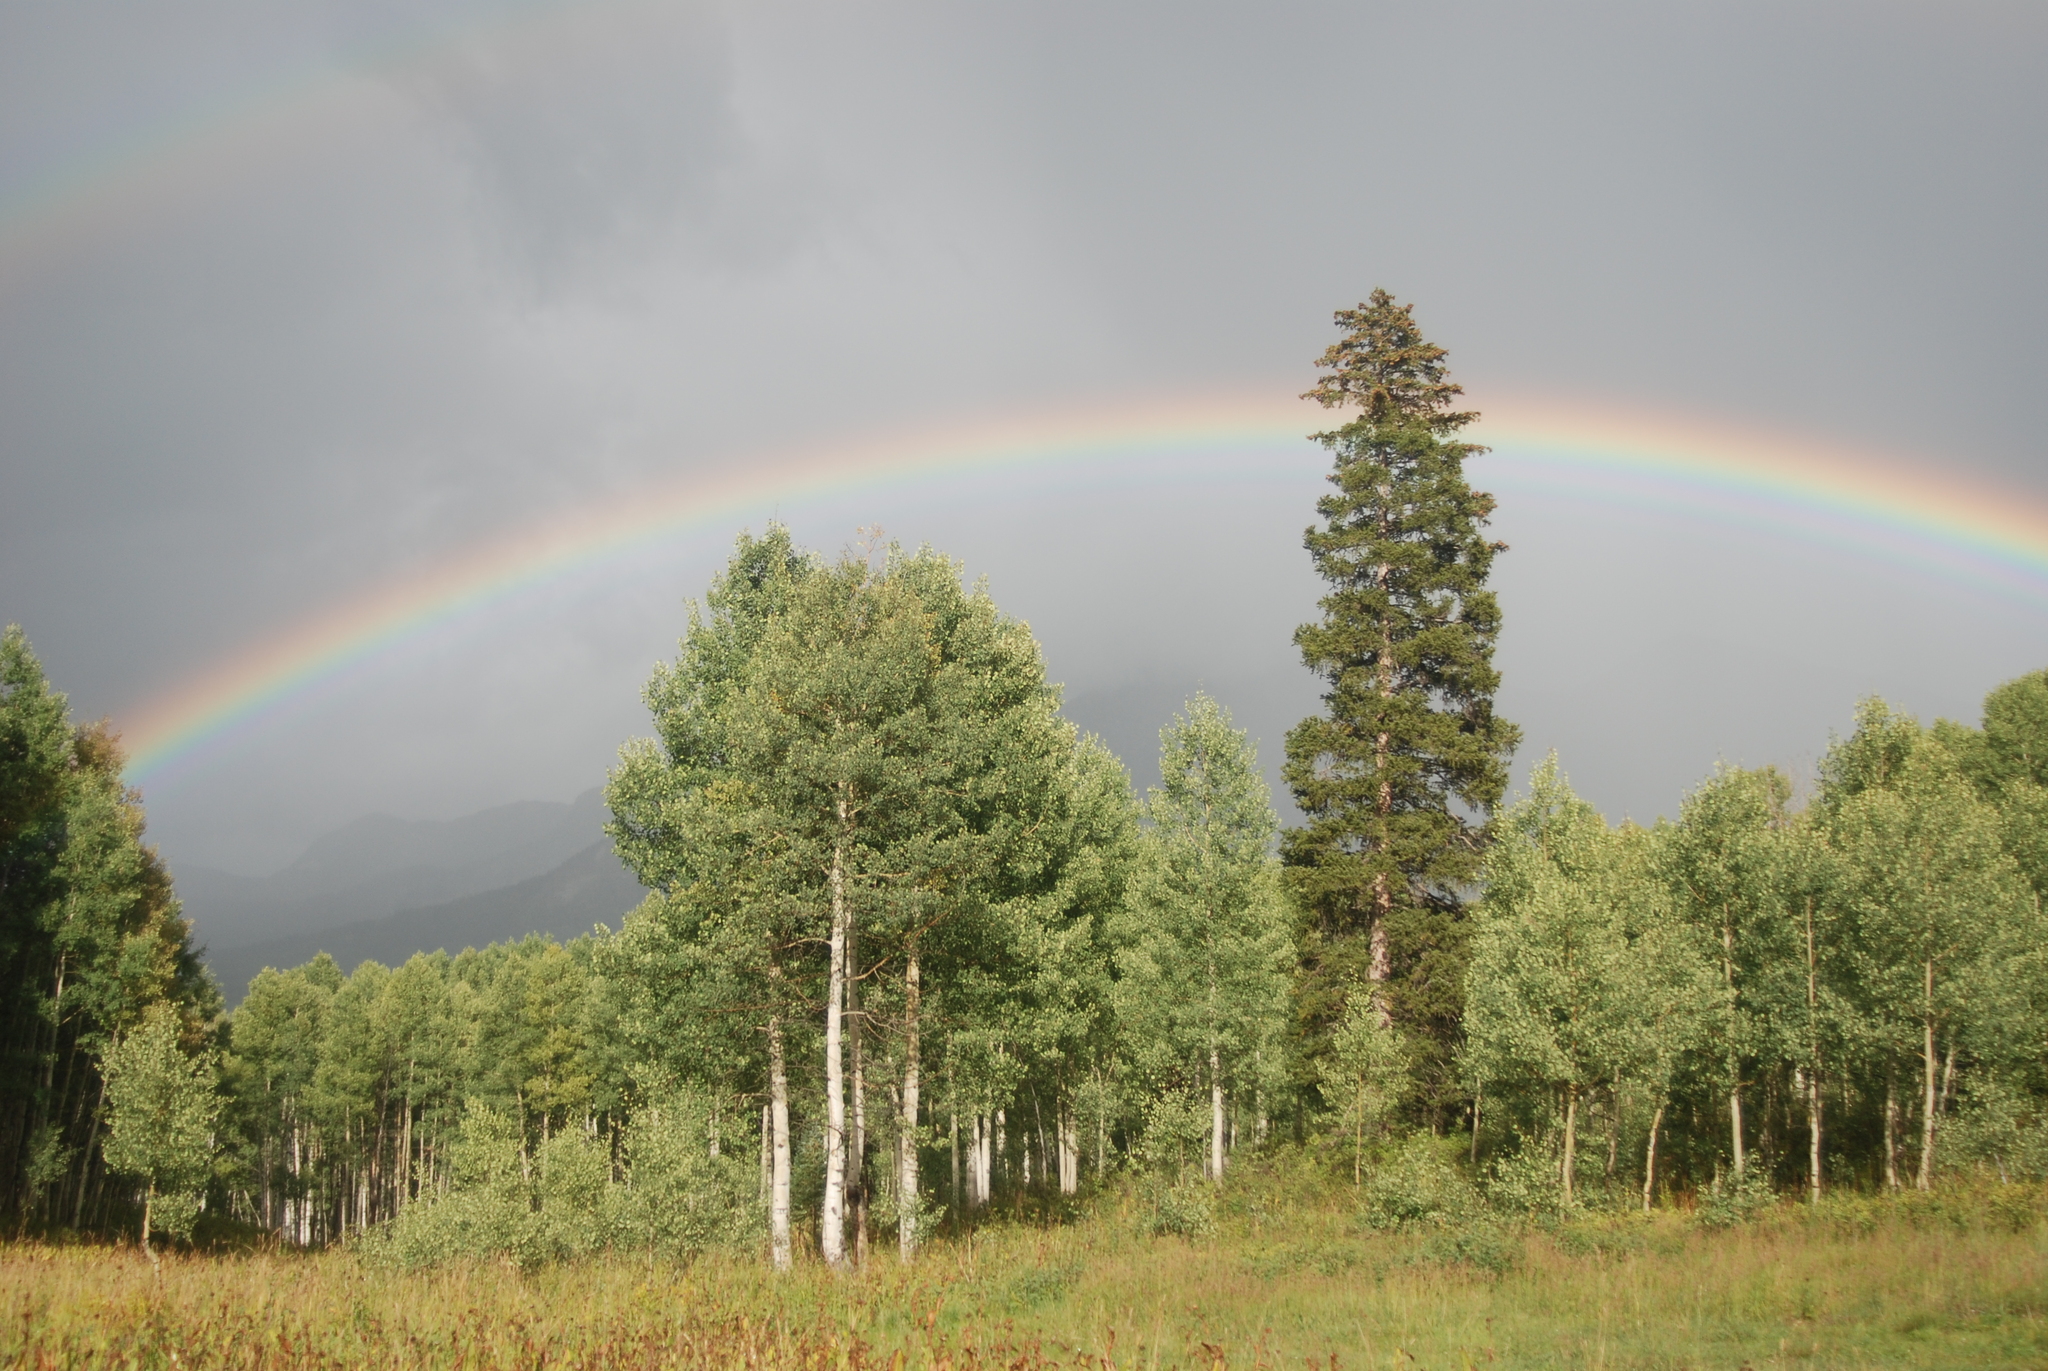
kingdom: Plantae
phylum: Tracheophyta
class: Magnoliopsida
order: Malpighiales
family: Salicaceae
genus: Populus
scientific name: Populus tremuloides
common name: Quaking aspen
